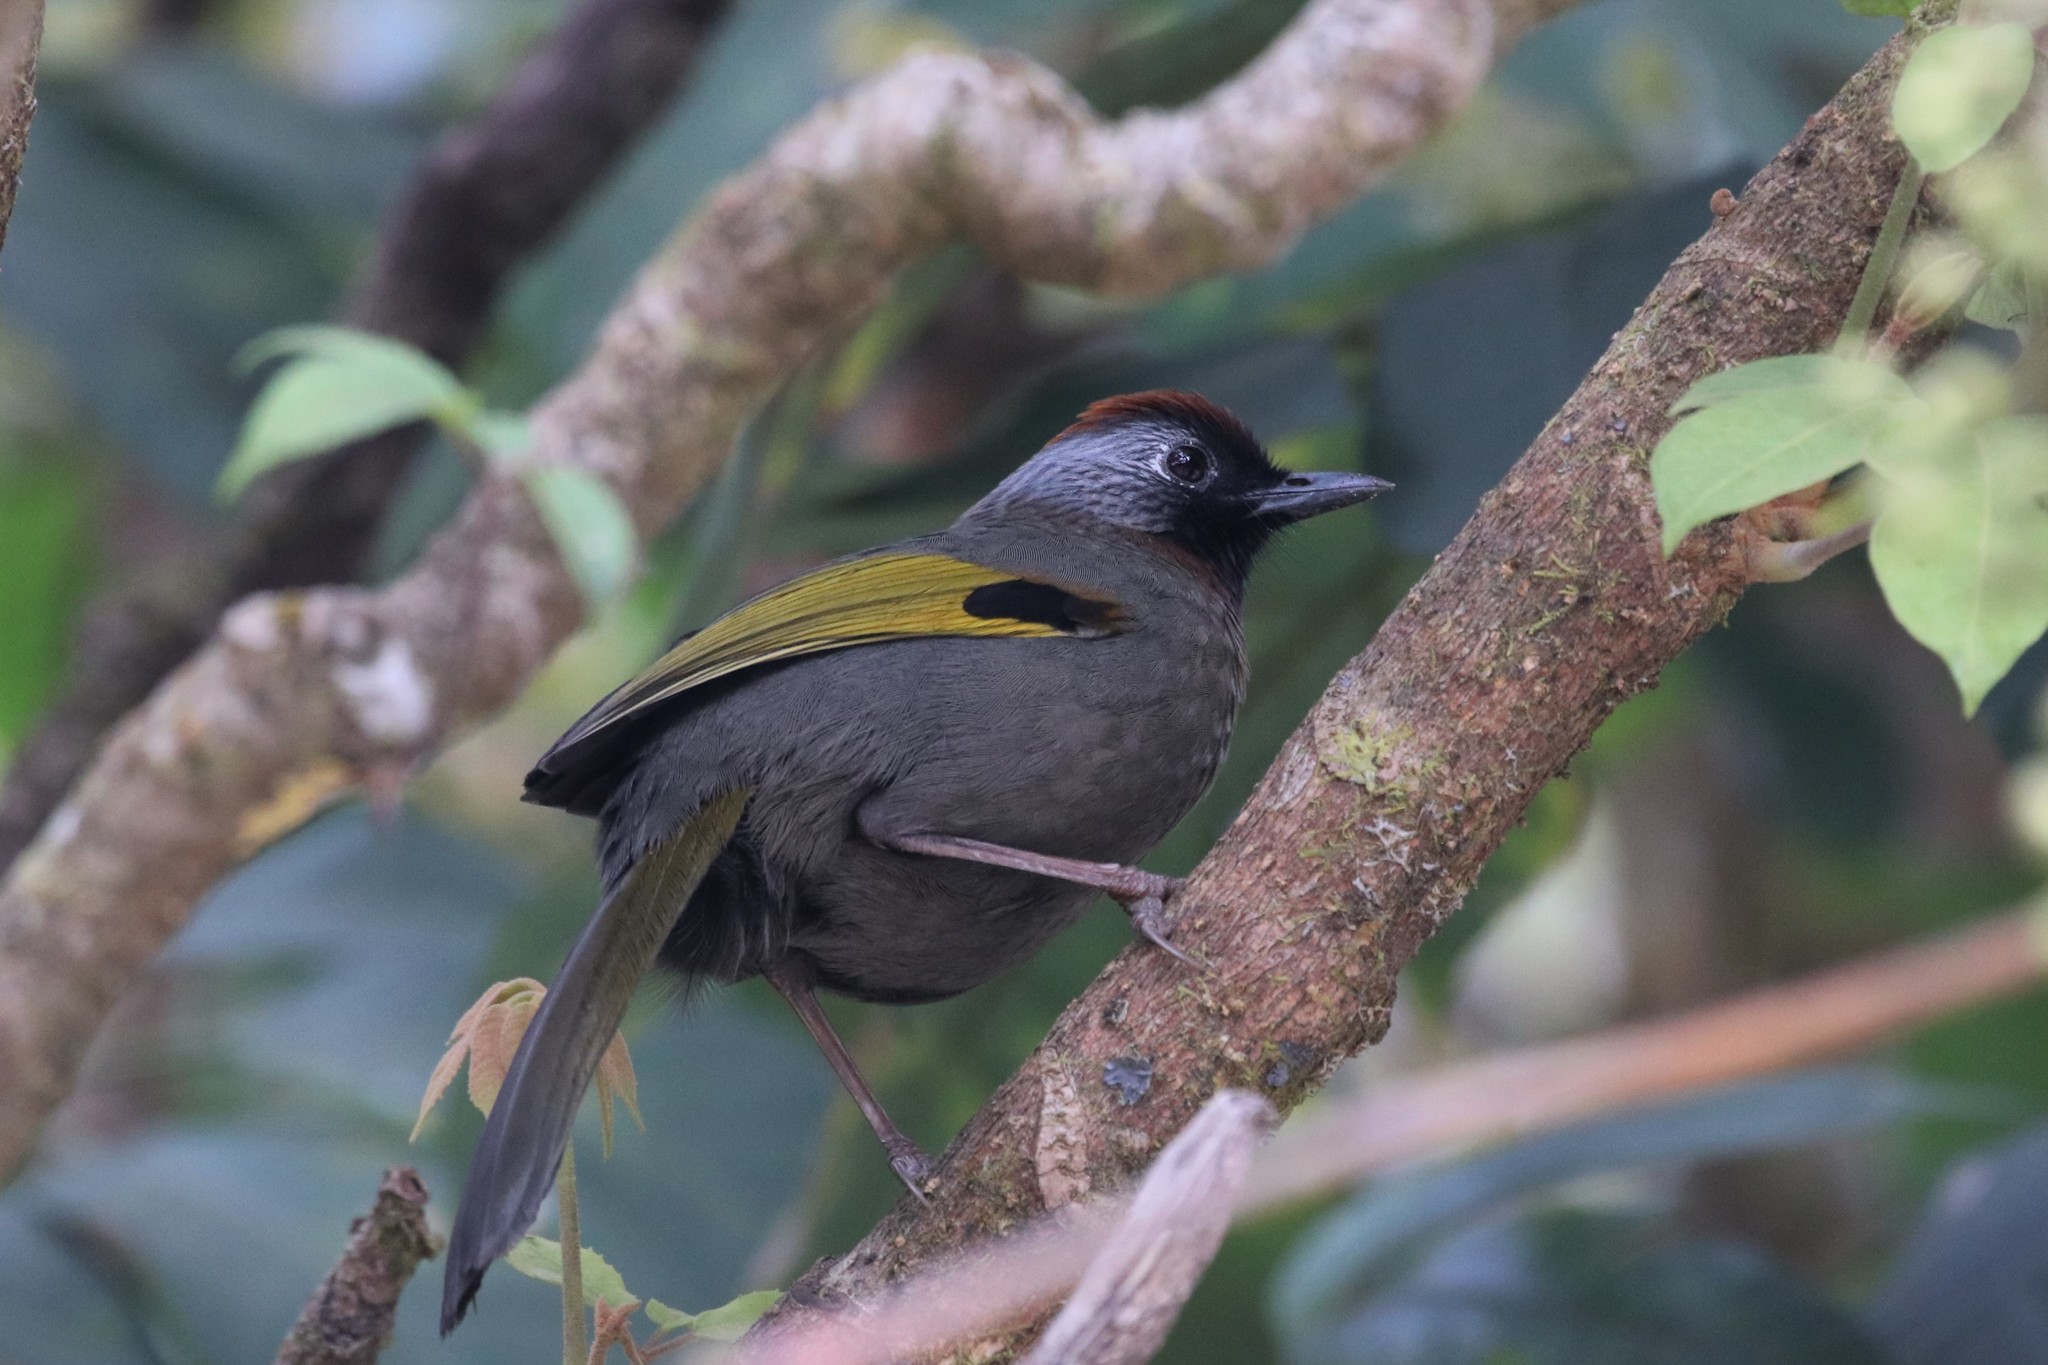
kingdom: Animalia
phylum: Chordata
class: Aves
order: Passeriformes
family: Leiothrichidae
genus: Trochalopteron
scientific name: Trochalopteron melanostigma
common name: Silver-eared laughingthrush
